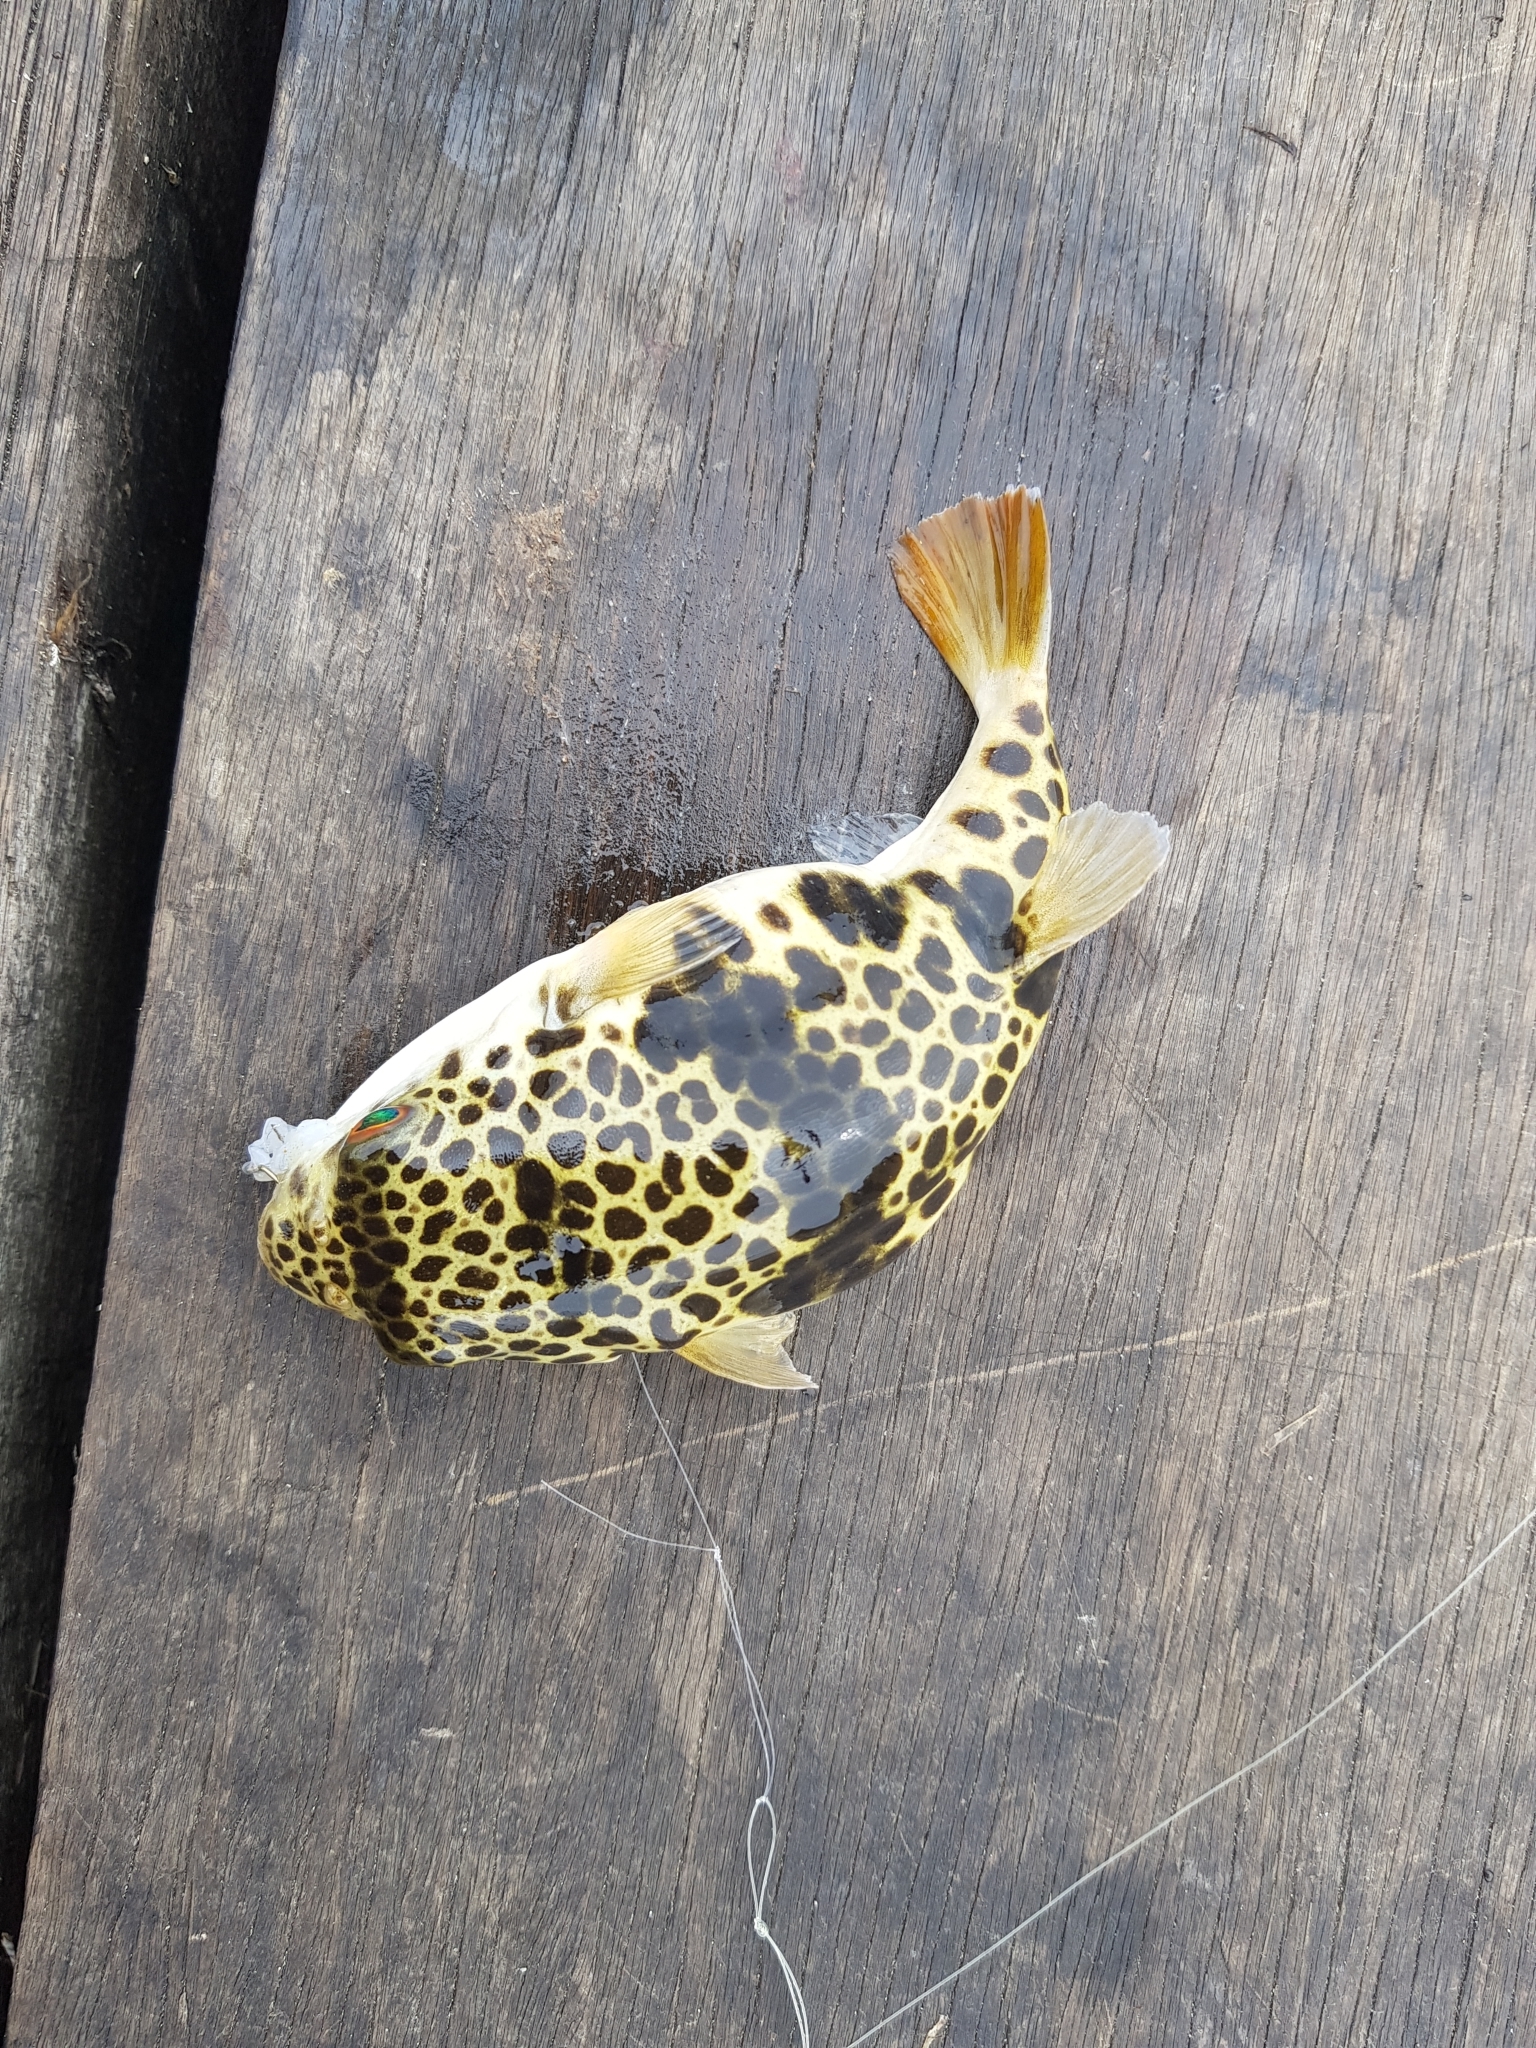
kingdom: Animalia
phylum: Chordata
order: Tetraodontiformes
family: Tetraodontidae
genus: Tetractenos
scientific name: Tetractenos glaber
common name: Smooth toadfish
